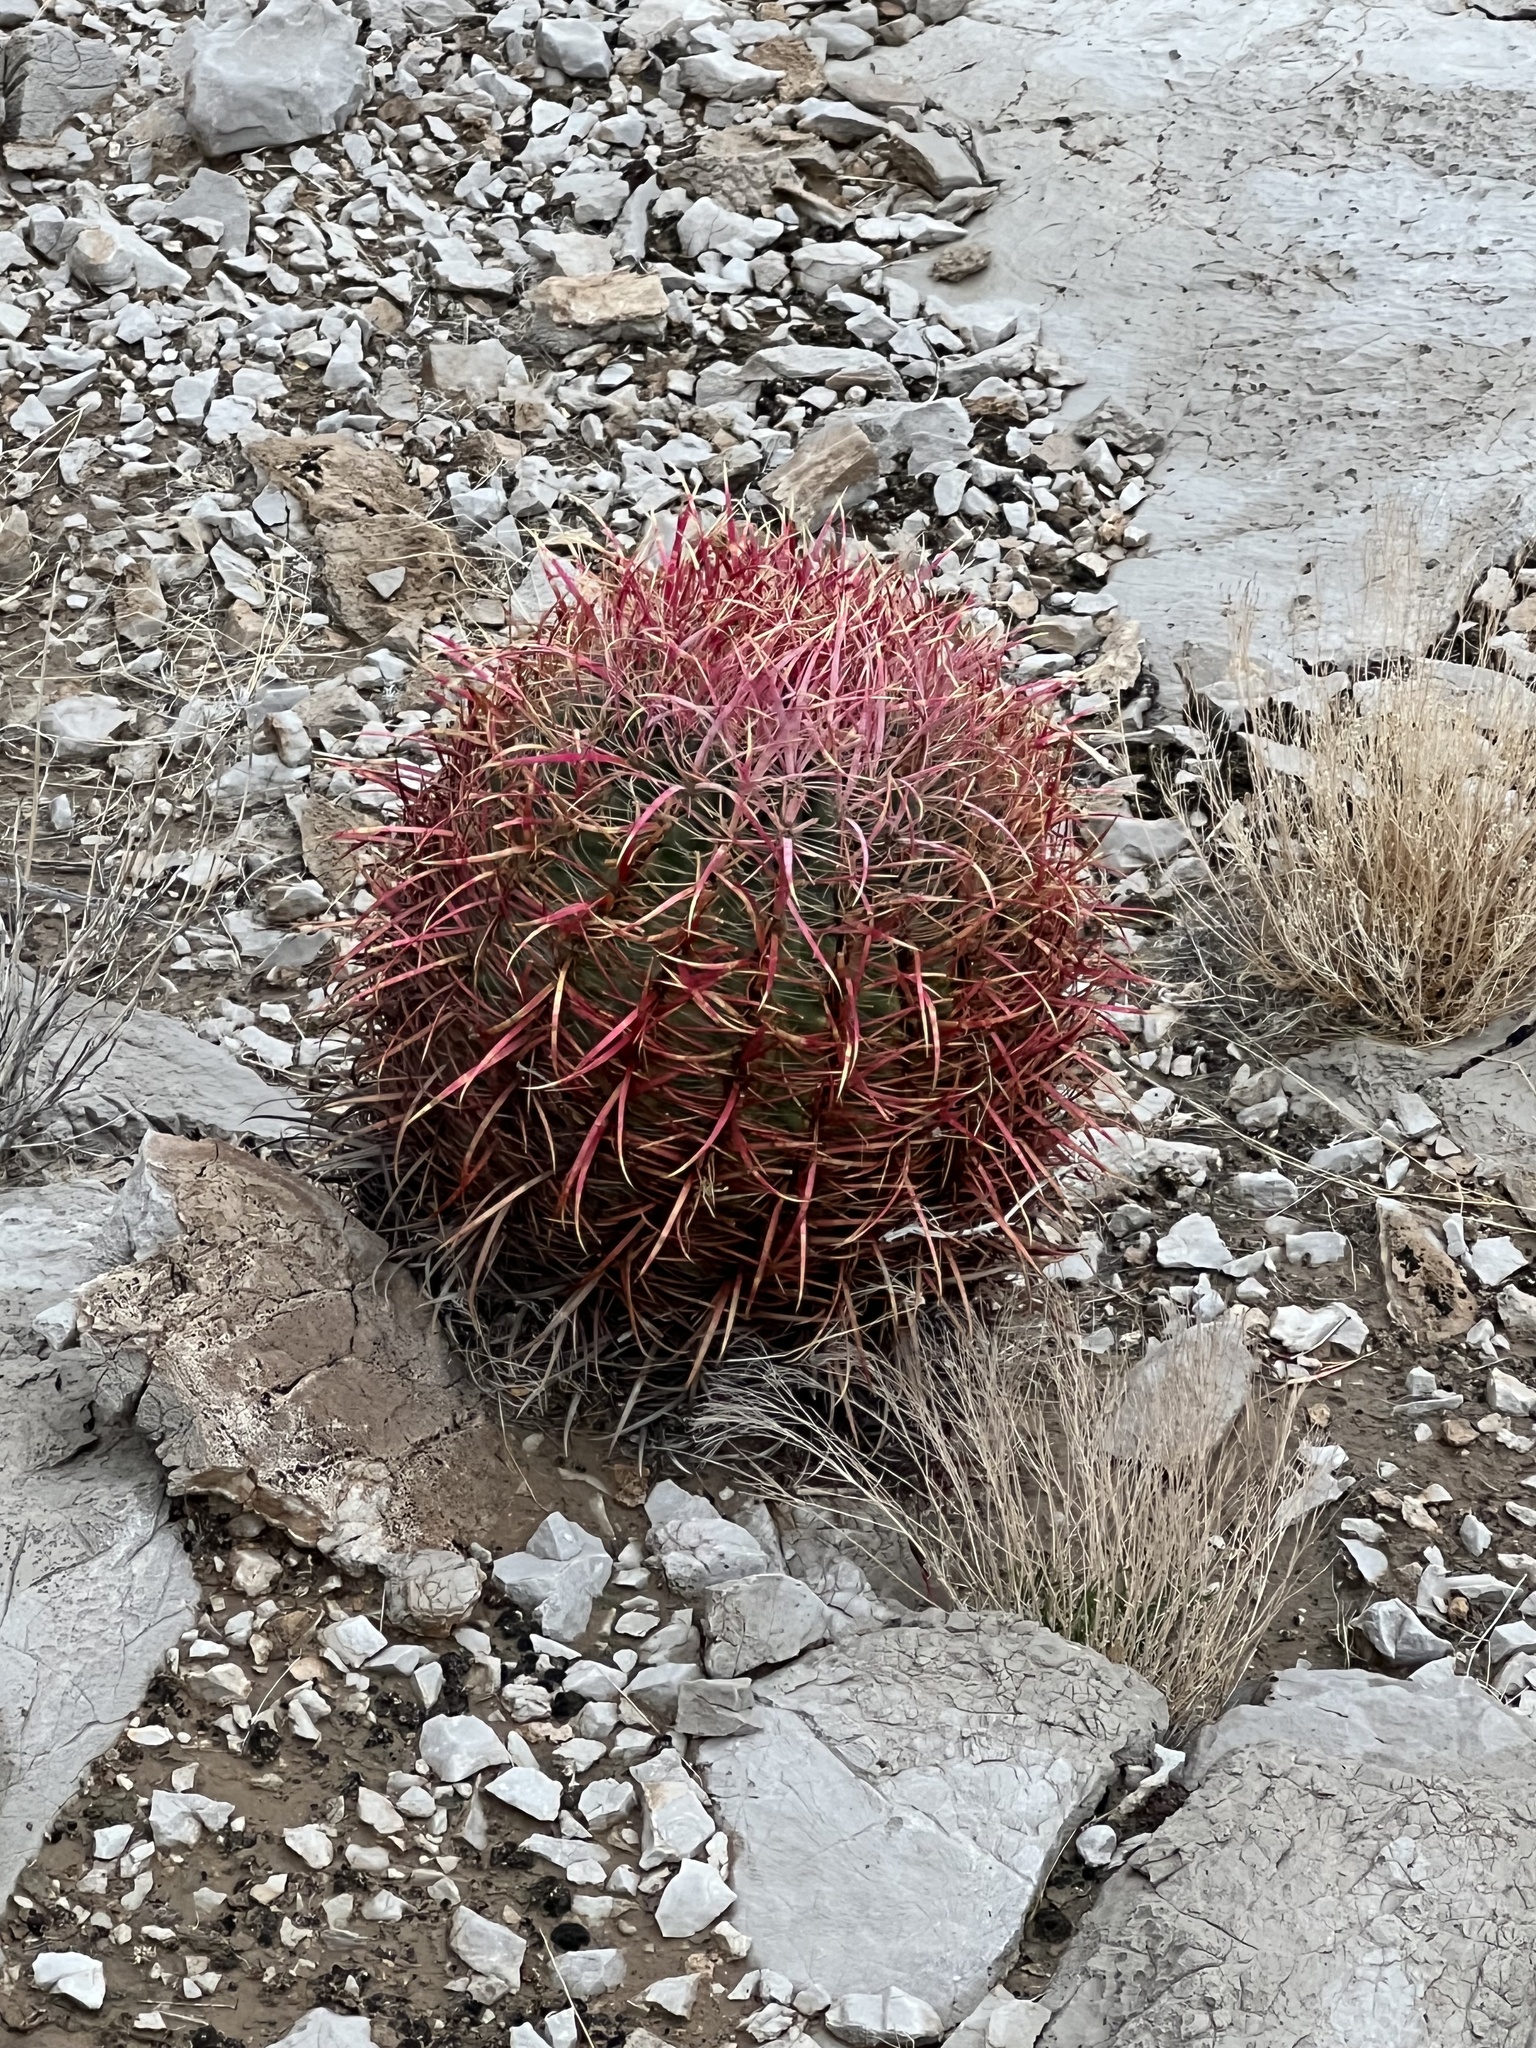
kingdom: Plantae
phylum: Tracheophyta
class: Magnoliopsida
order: Caryophyllales
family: Cactaceae
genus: Ferocactus
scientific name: Ferocactus cylindraceus
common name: California barrel cactus
